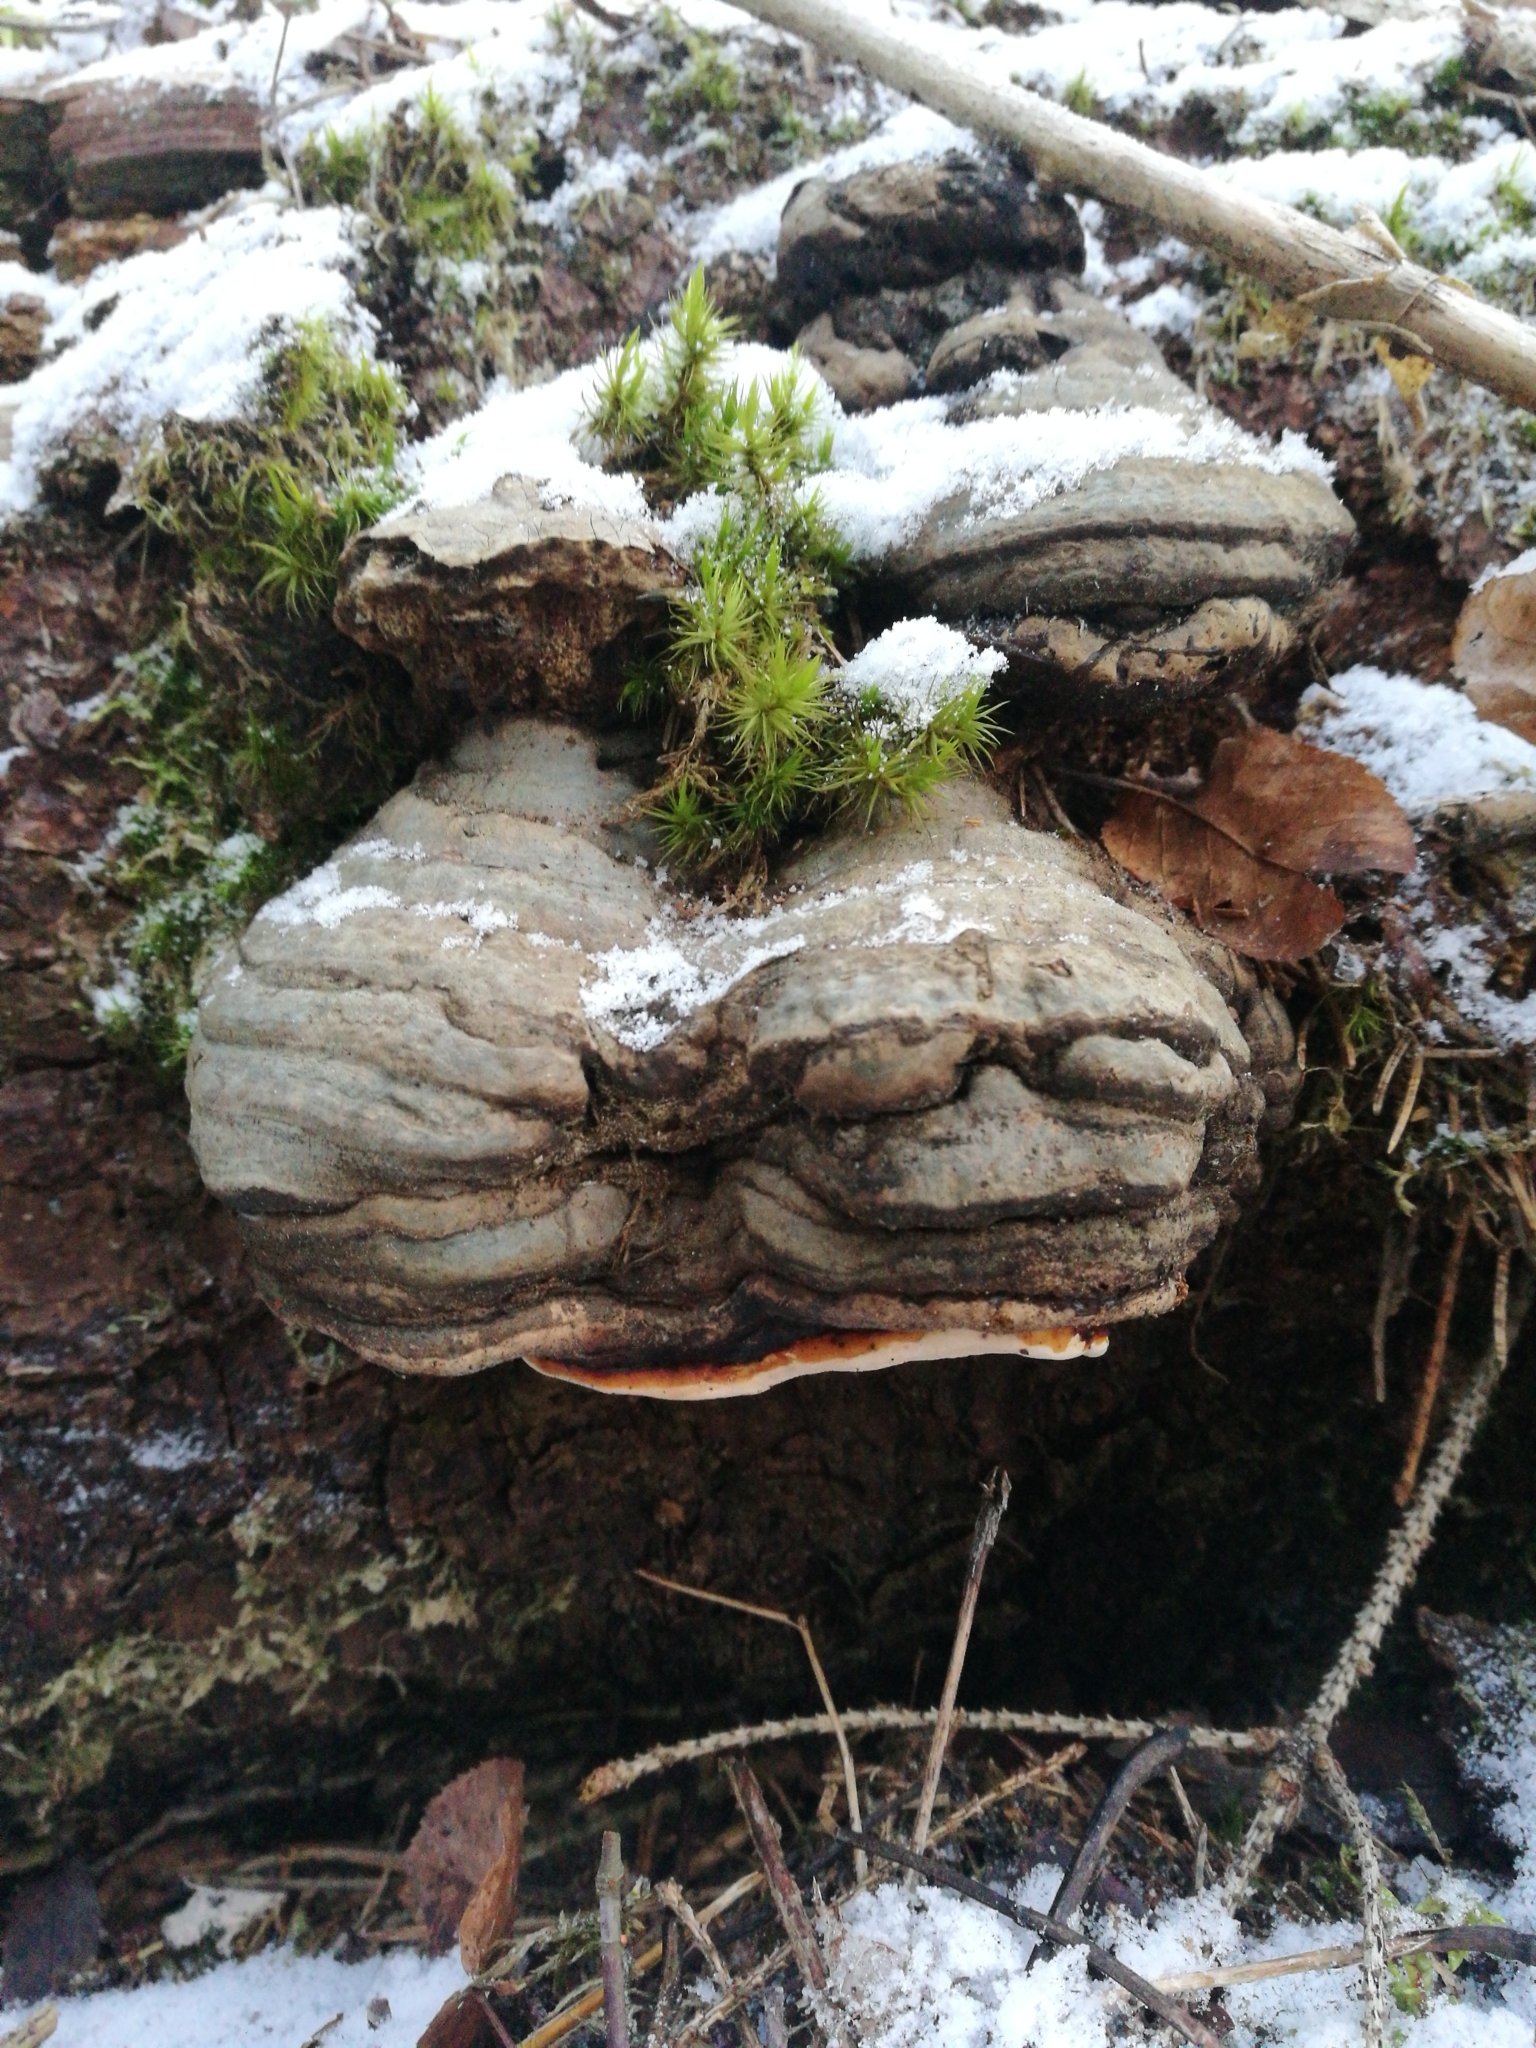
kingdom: Fungi
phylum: Basidiomycota
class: Agaricomycetes
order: Polyporales
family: Fomitopsidaceae
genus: Fomitopsis
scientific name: Fomitopsis pinicola
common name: Red-belted bracket
